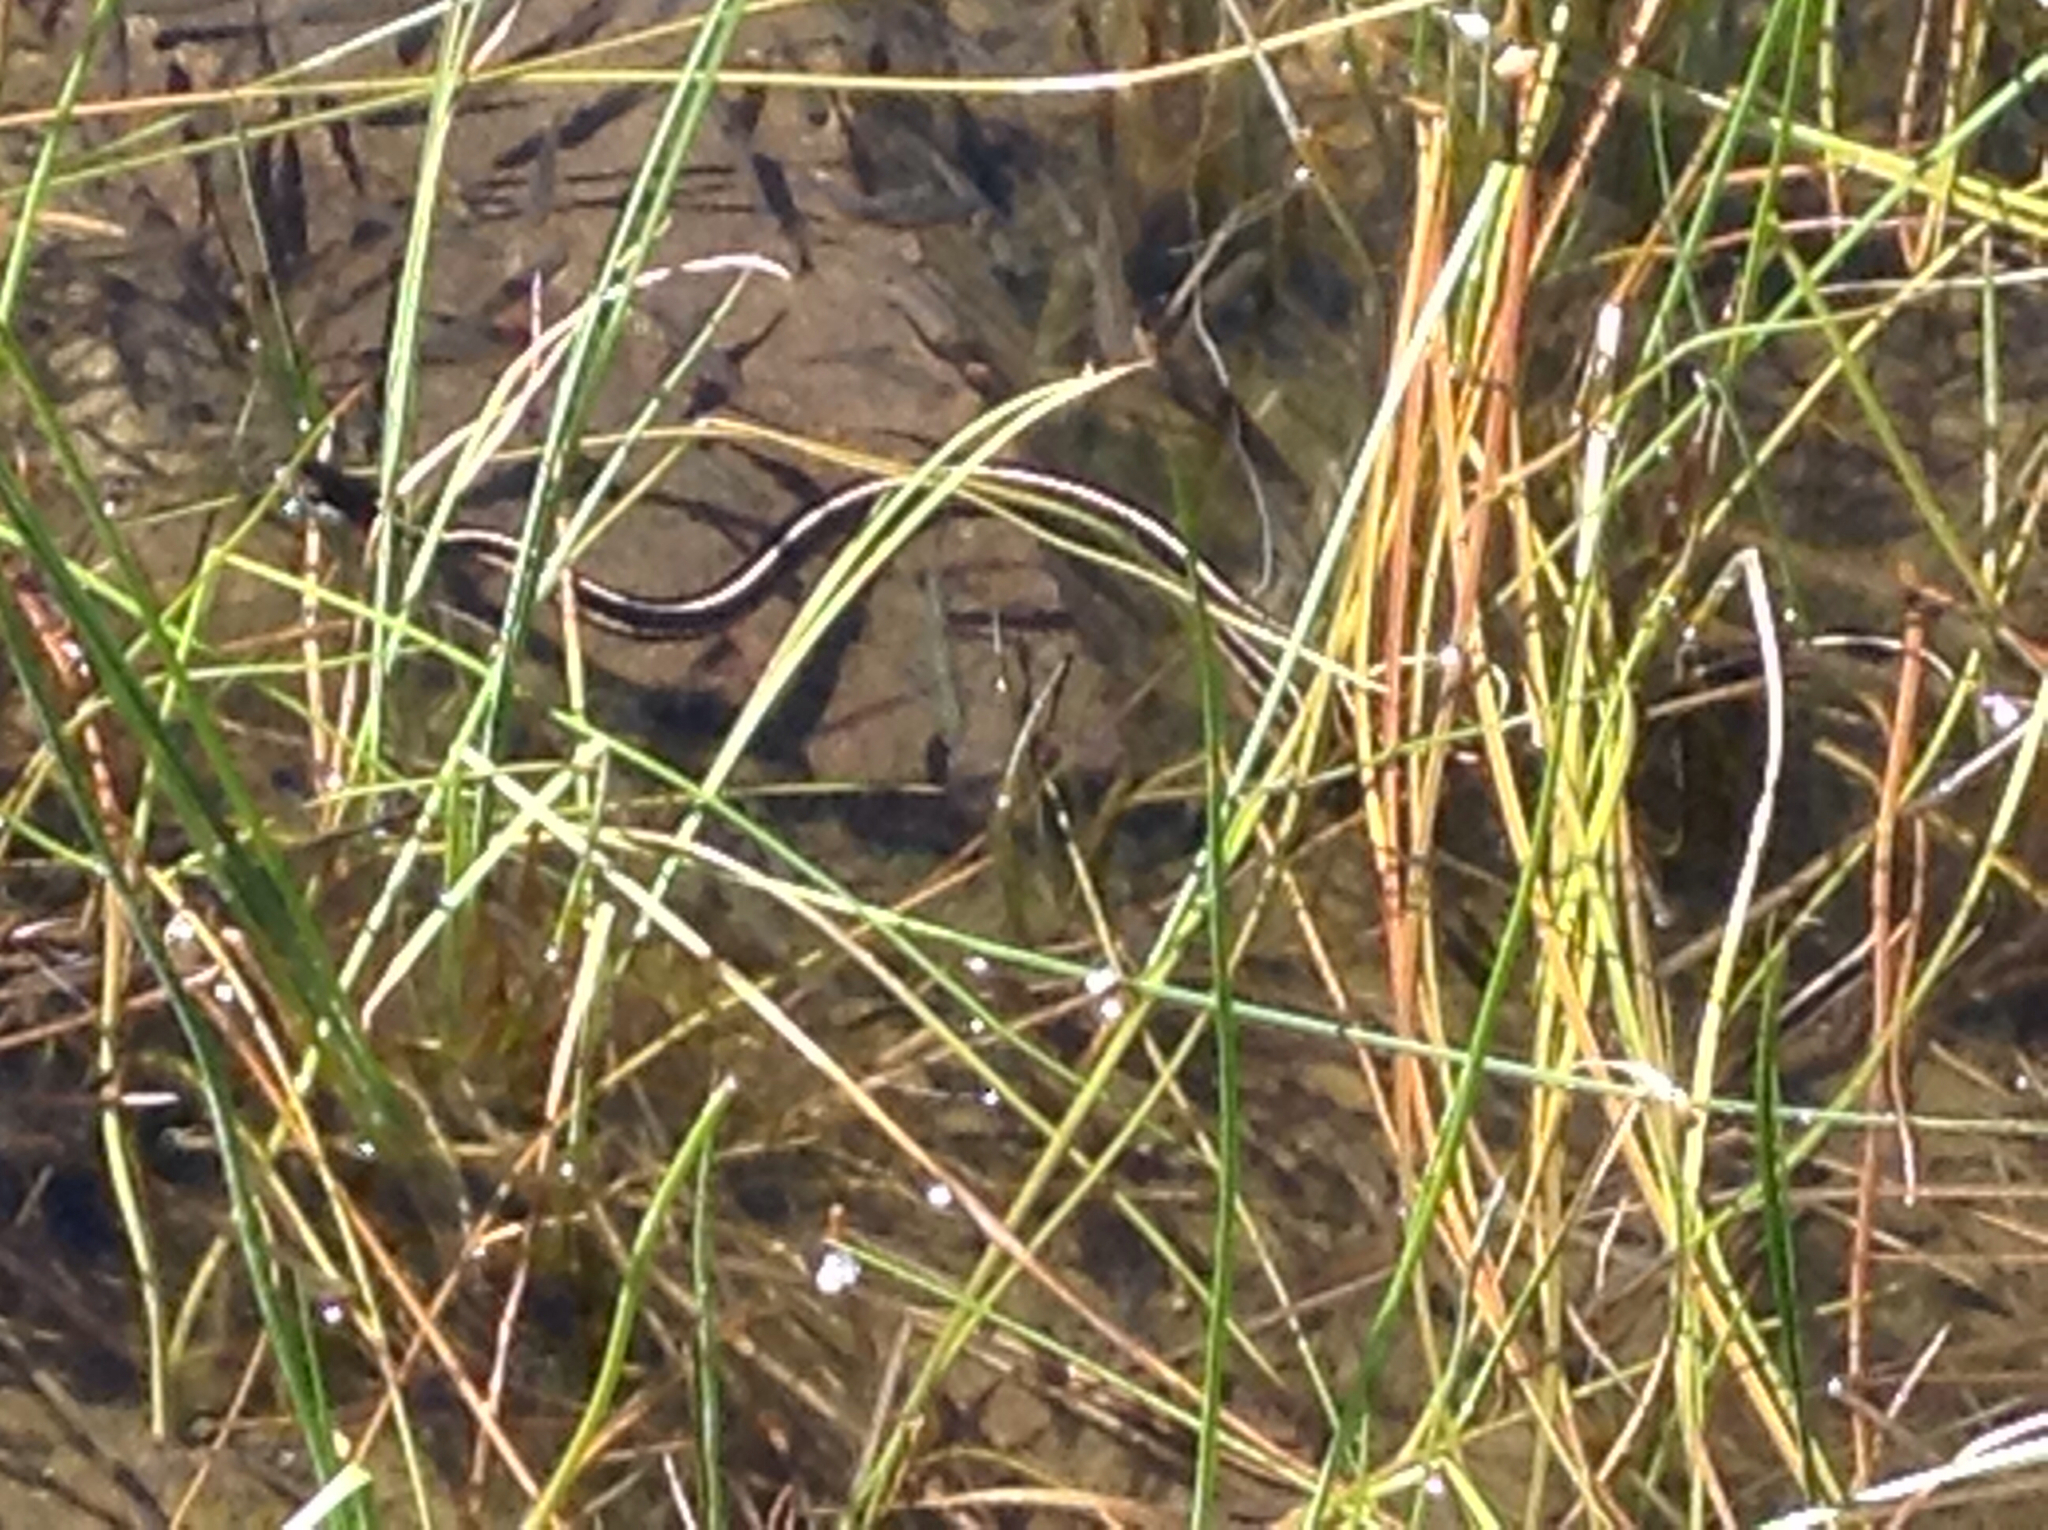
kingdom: Animalia
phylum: Chordata
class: Squamata
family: Colubridae
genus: Thamnophis
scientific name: Thamnophis elegans
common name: Western terrestrial garter snake
